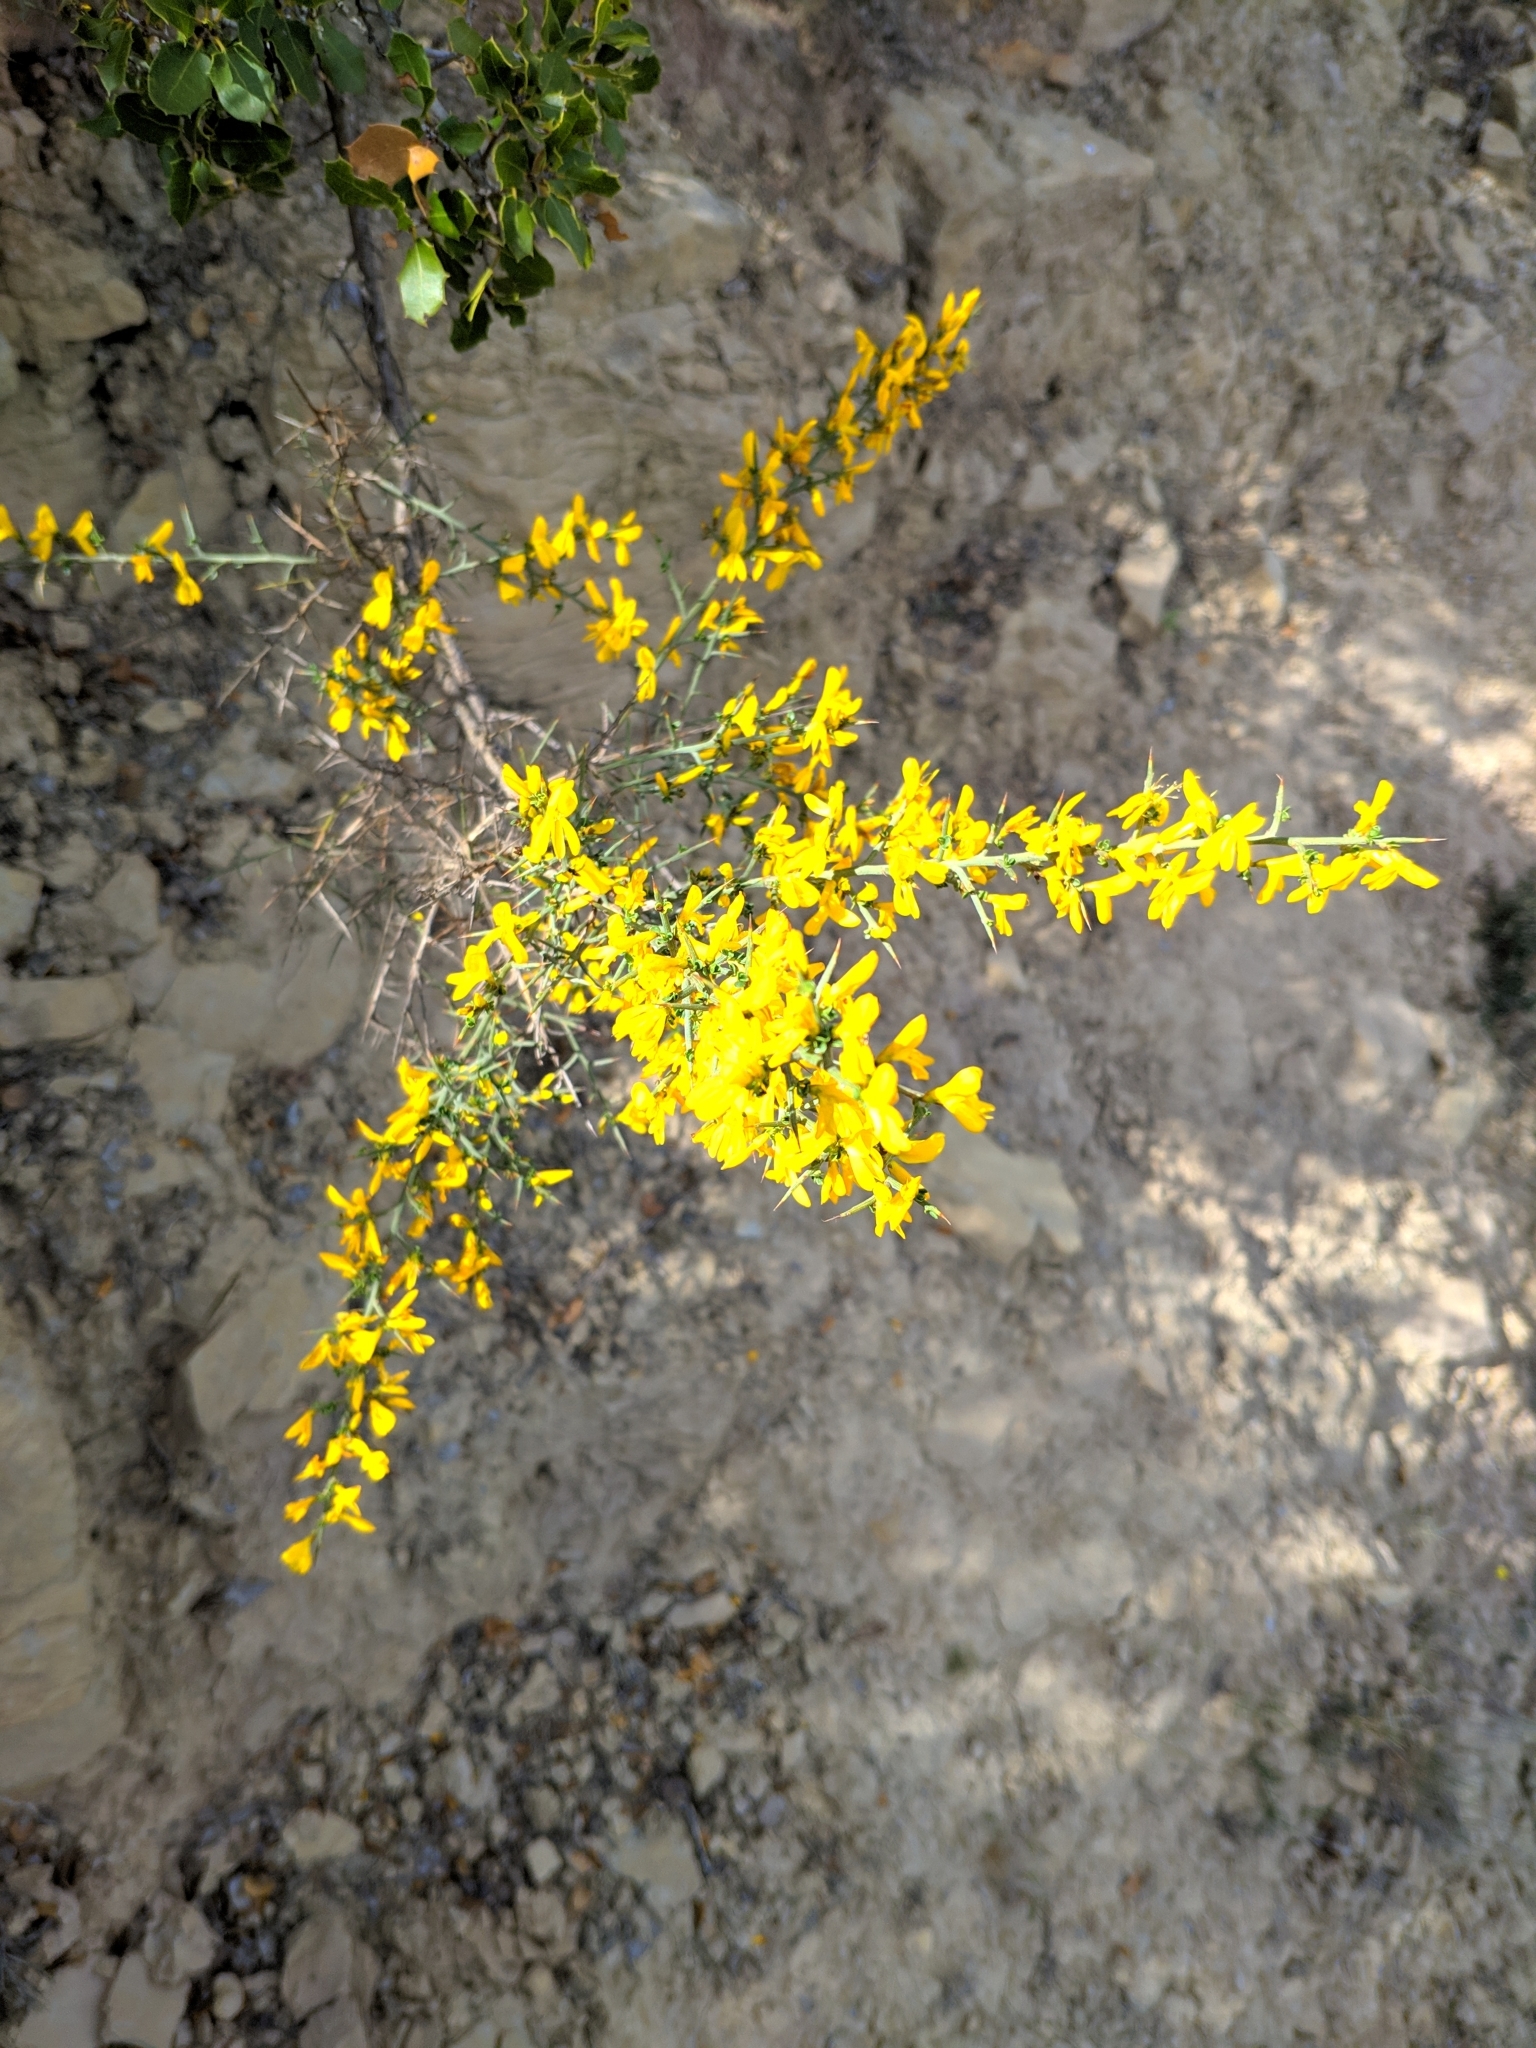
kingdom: Plantae
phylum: Tracheophyta
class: Magnoliopsida
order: Fabales
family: Fabaceae
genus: Genista
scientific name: Genista scorpius
